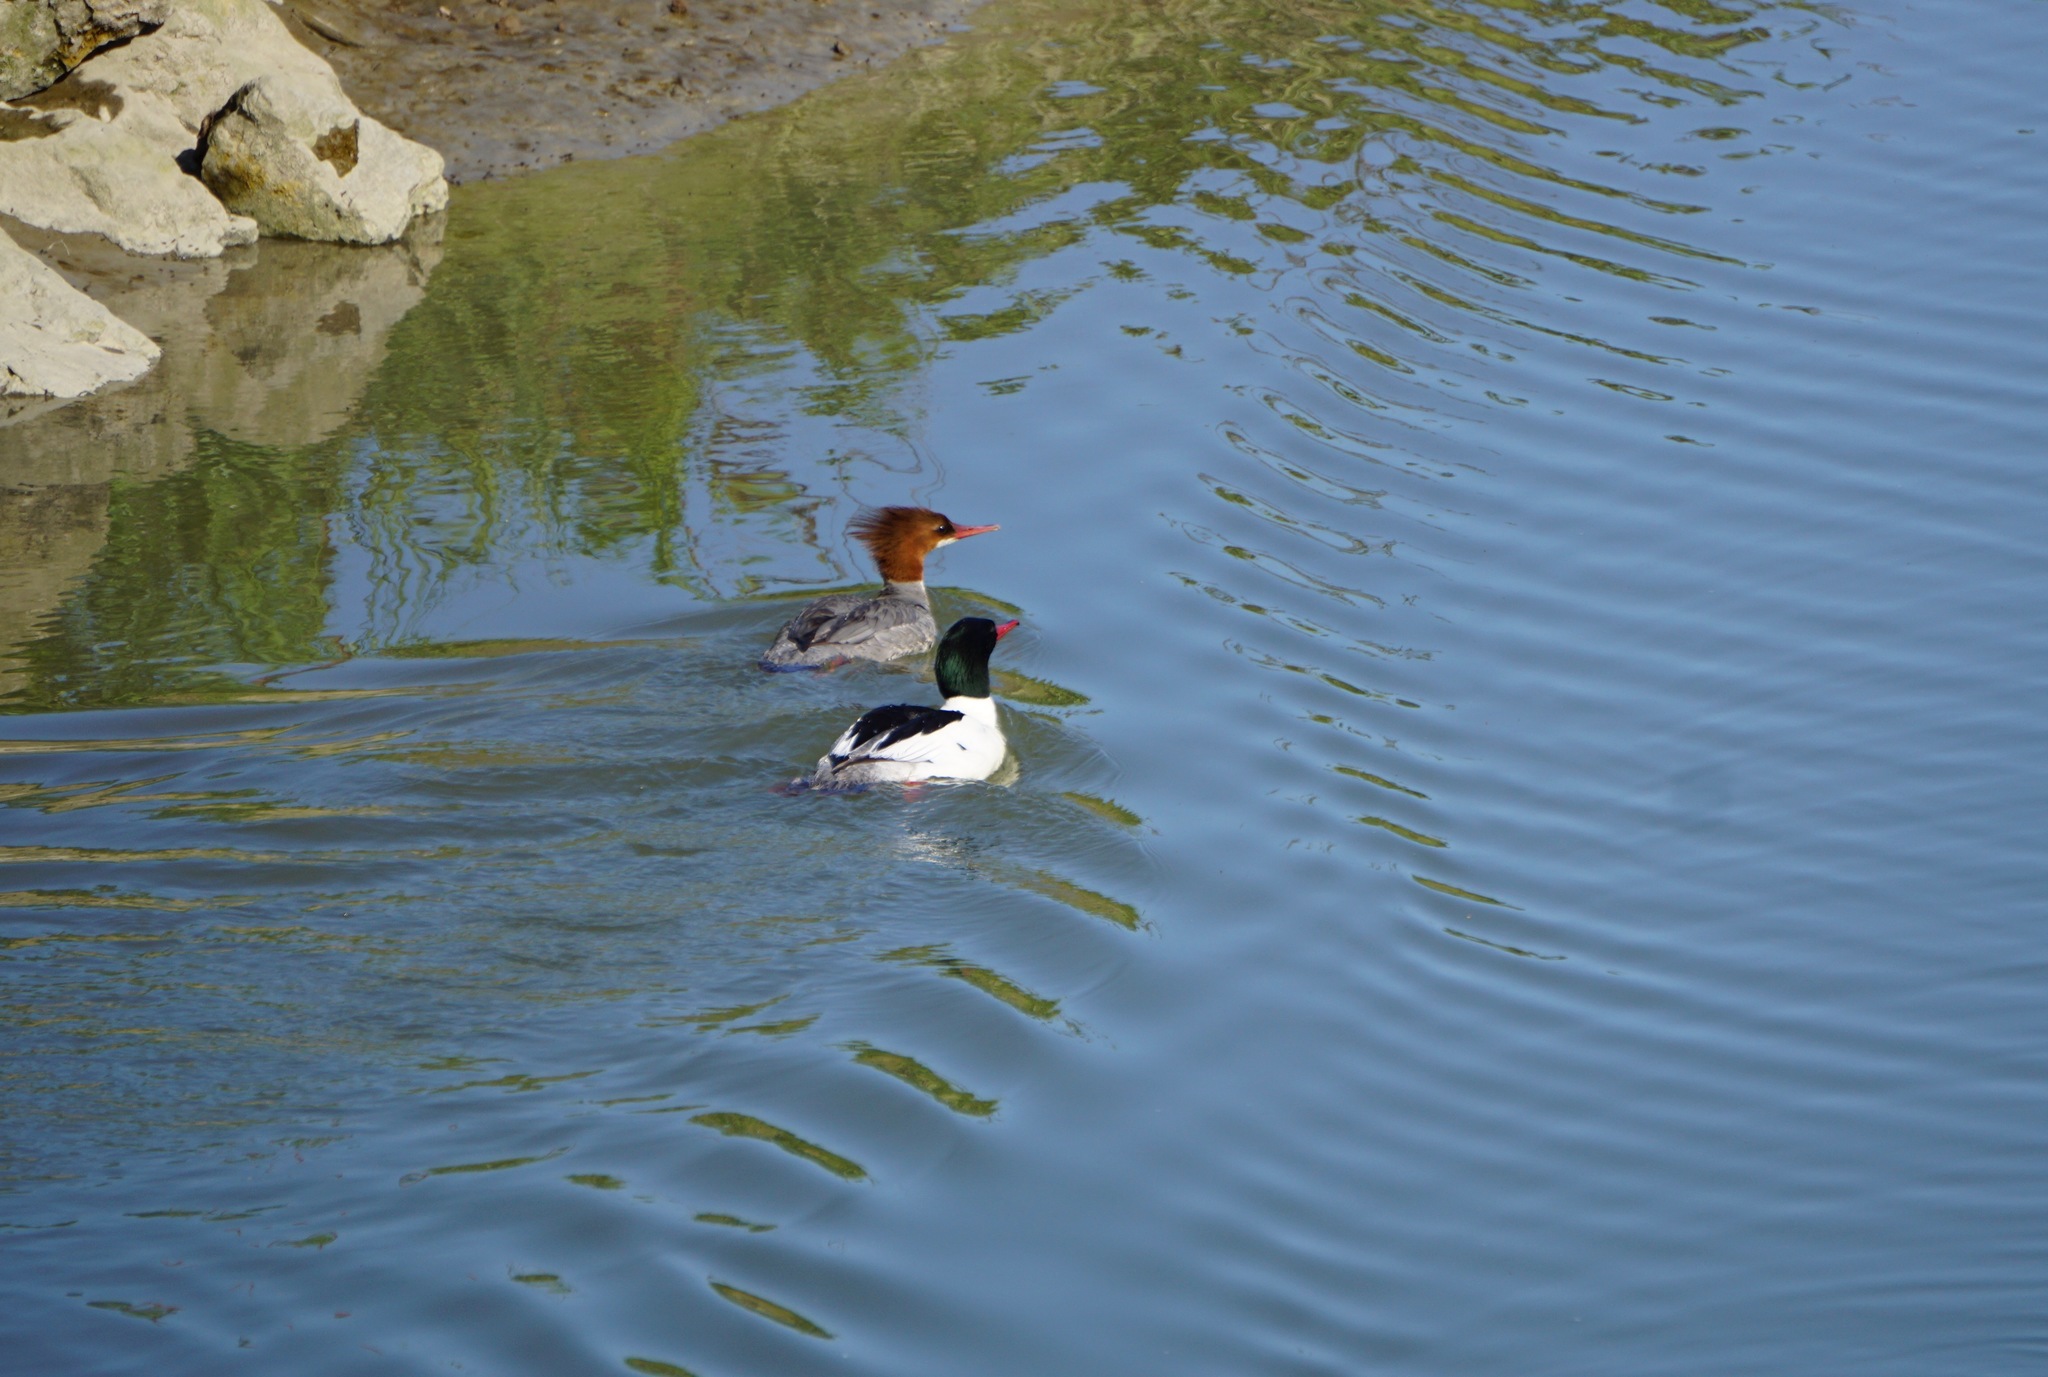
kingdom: Animalia
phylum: Chordata
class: Aves
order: Anseriformes
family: Anatidae
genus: Mergus
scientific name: Mergus merganser
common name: Common merganser
